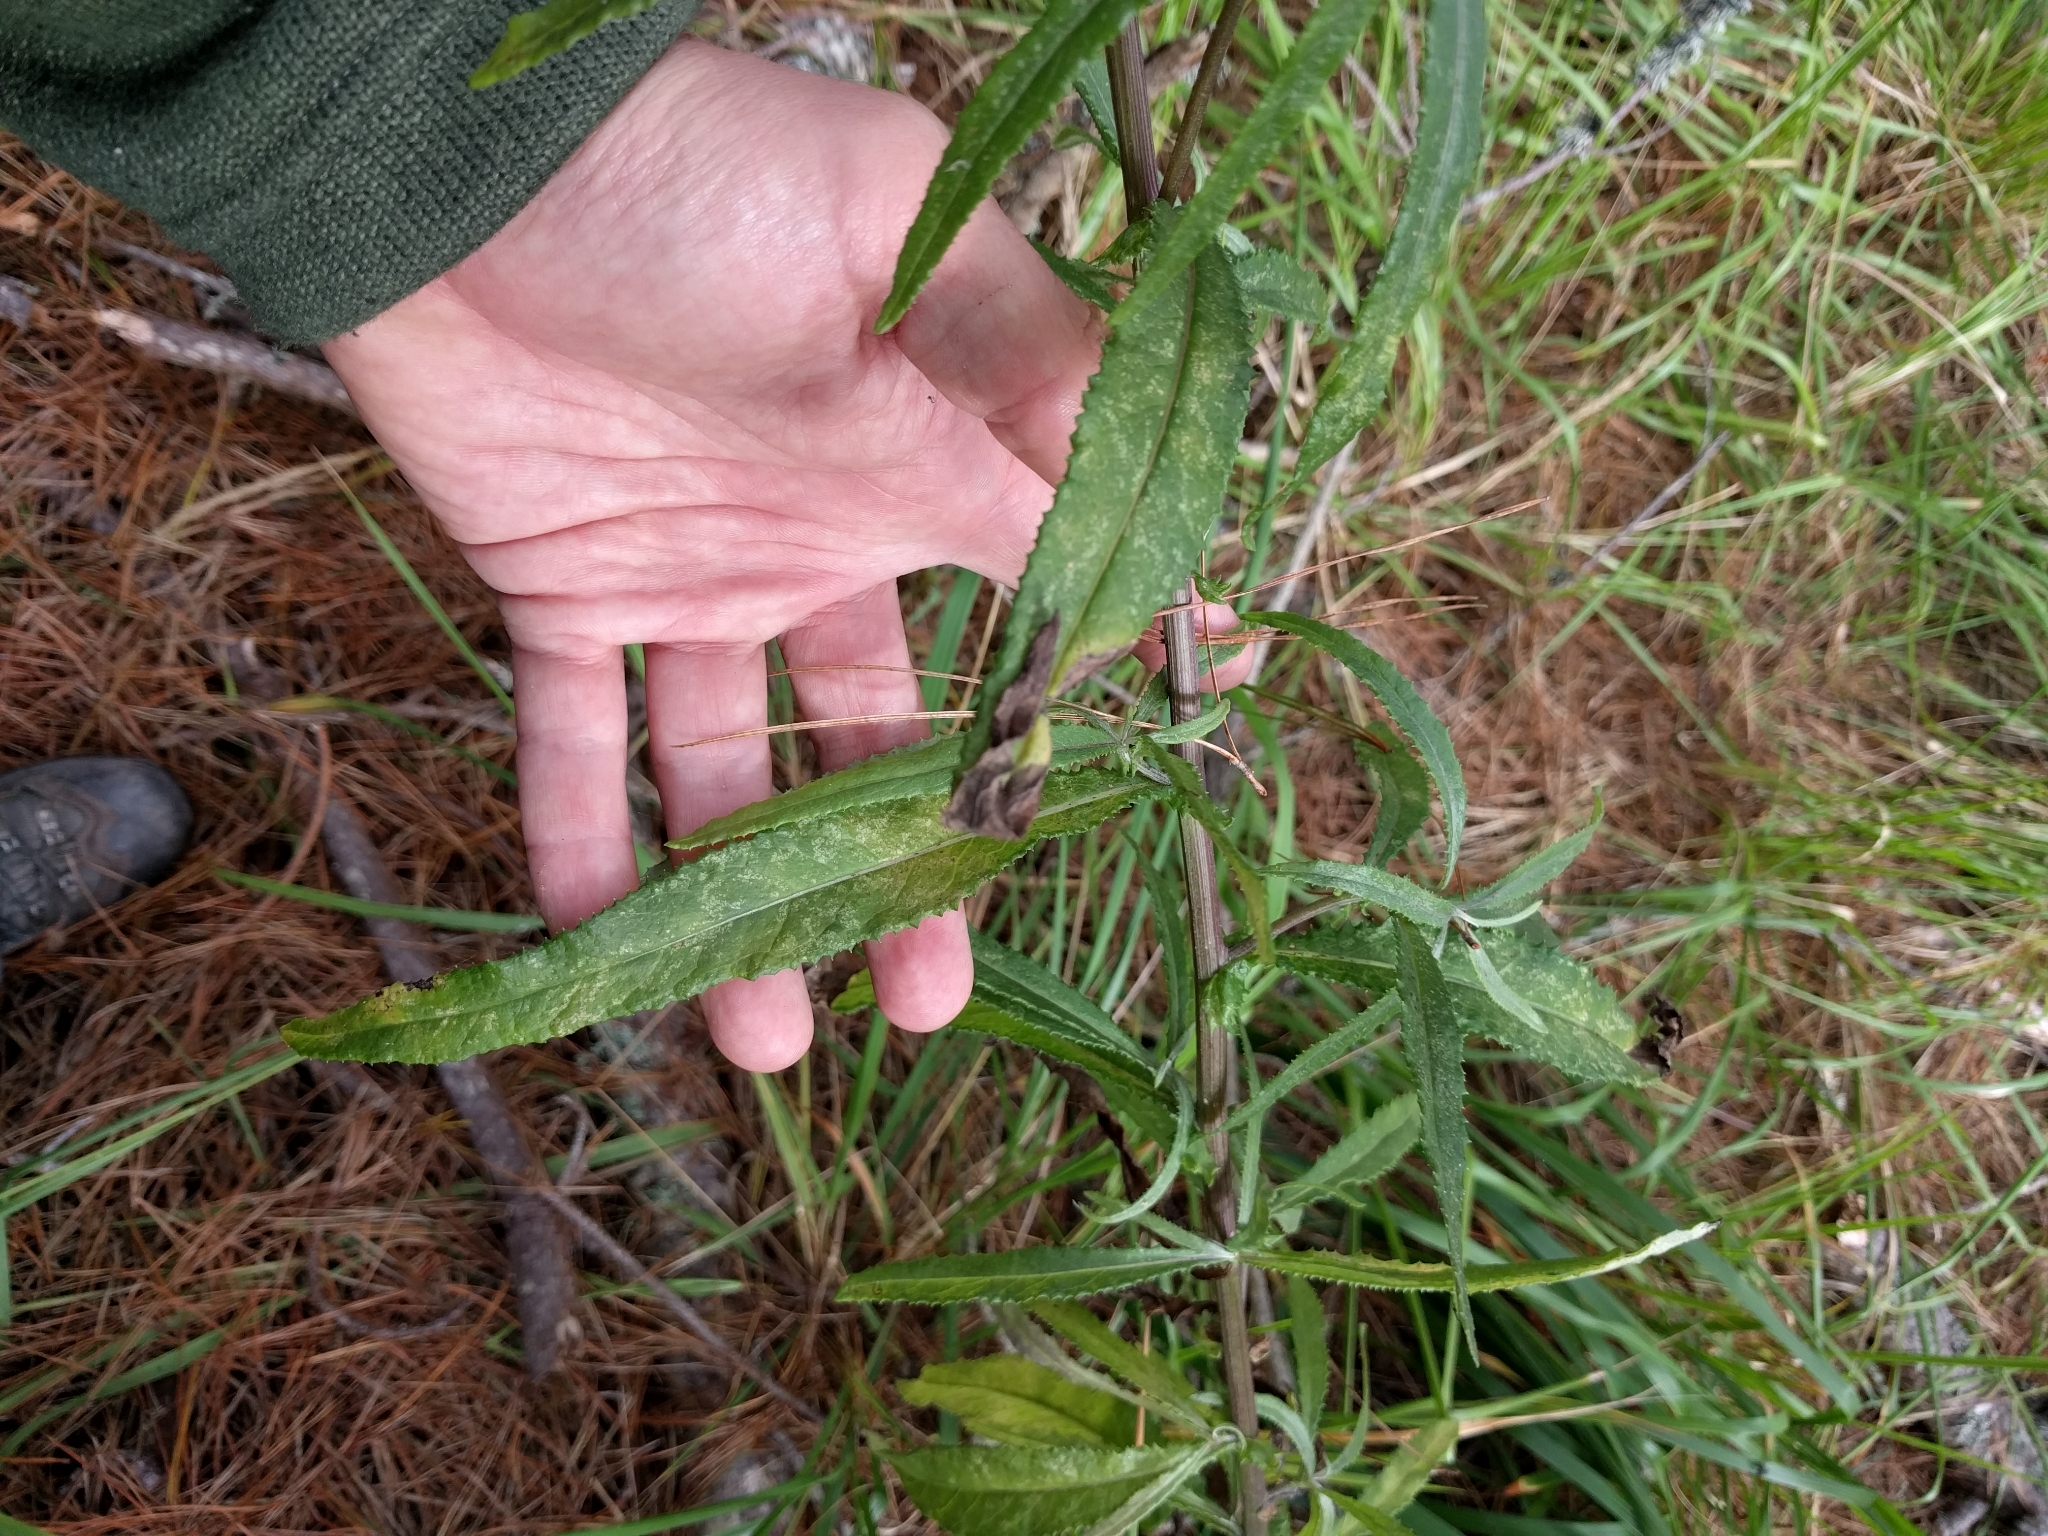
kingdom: Plantae
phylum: Tracheophyta
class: Magnoliopsida
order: Asterales
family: Asteraceae
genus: Senecio
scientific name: Senecio minimus
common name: Toothed fireweed
